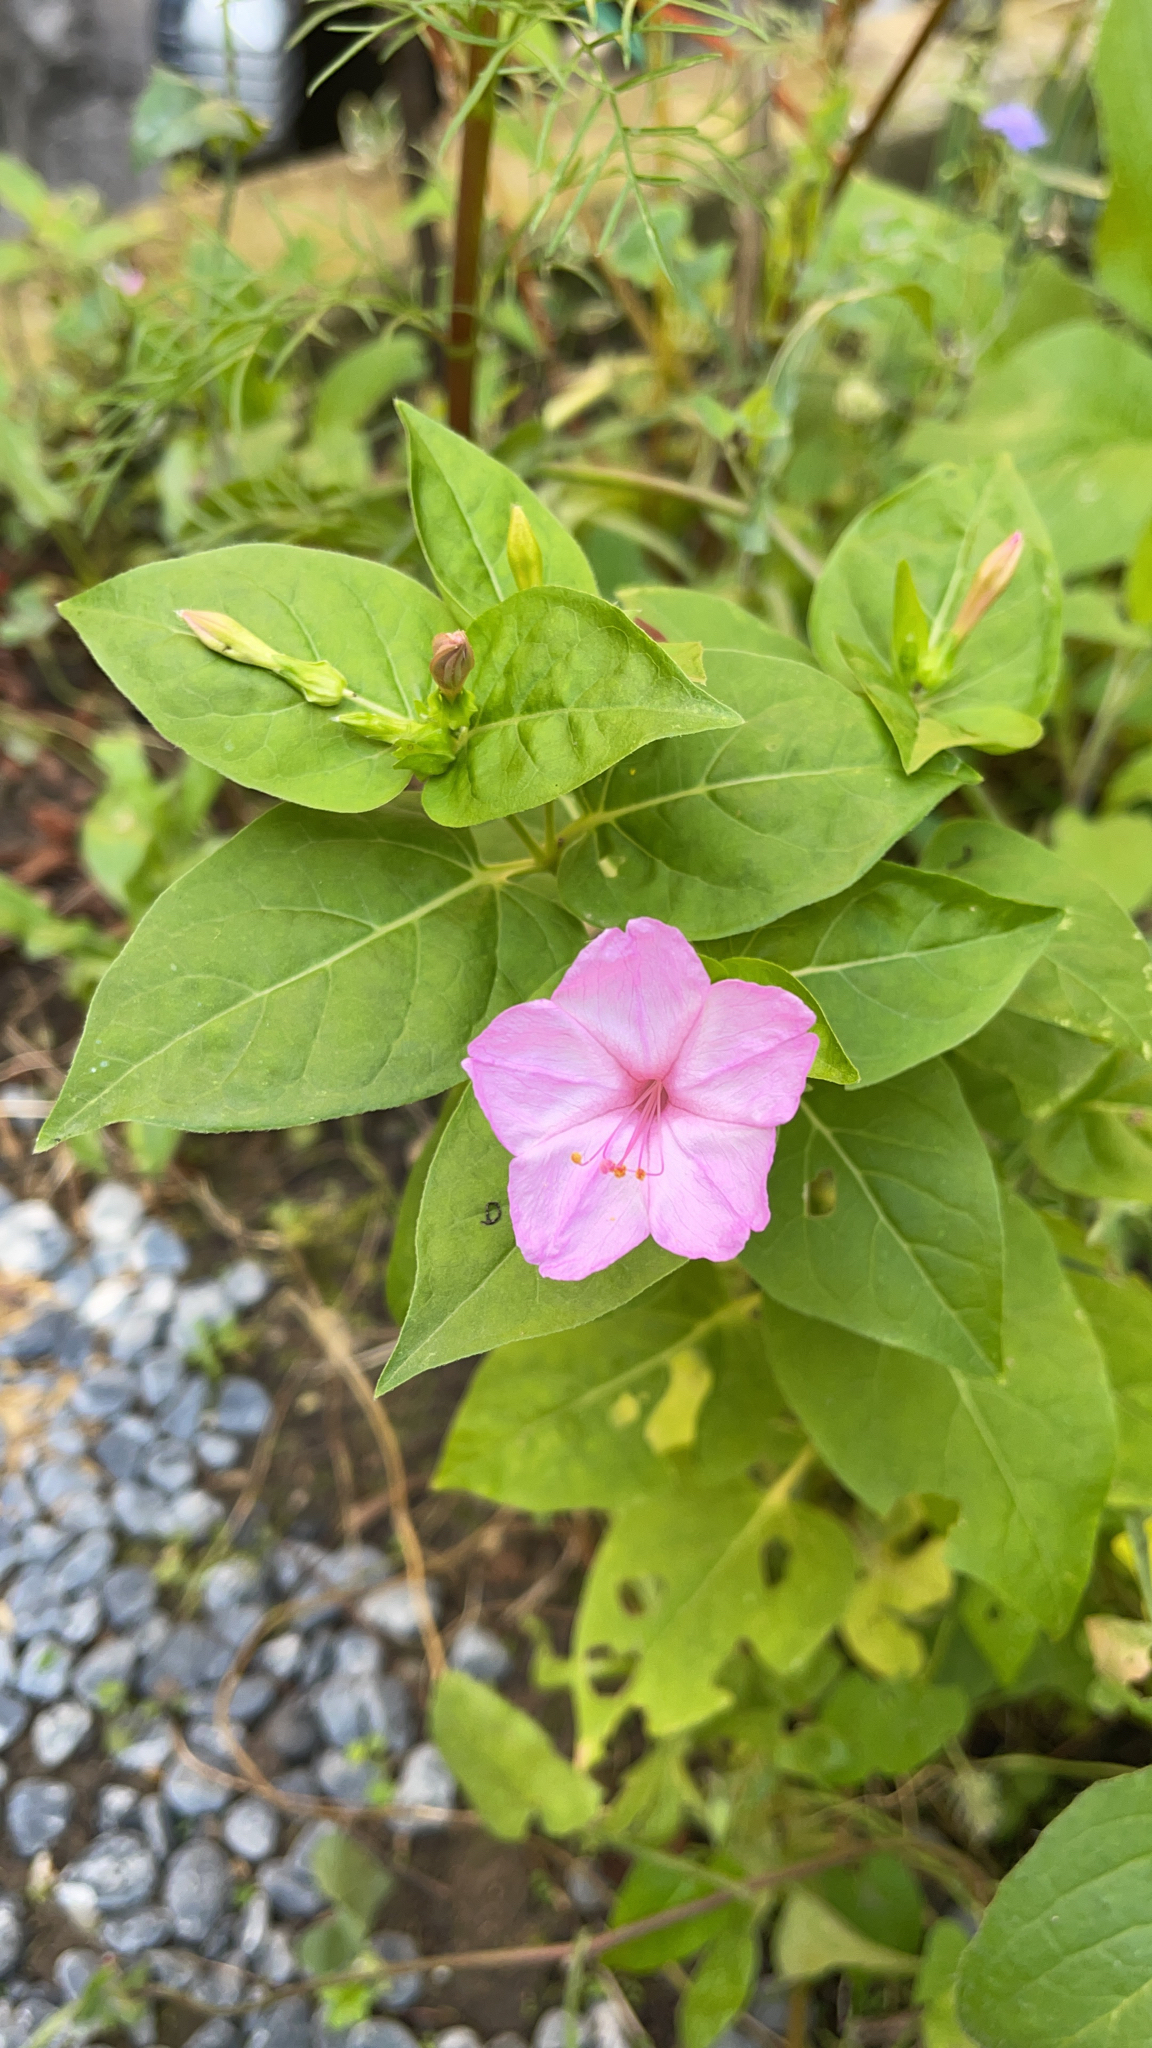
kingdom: Plantae
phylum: Tracheophyta
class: Magnoliopsida
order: Caryophyllales
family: Nyctaginaceae
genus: Mirabilis
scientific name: Mirabilis jalapa
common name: Marvel-of-peru
